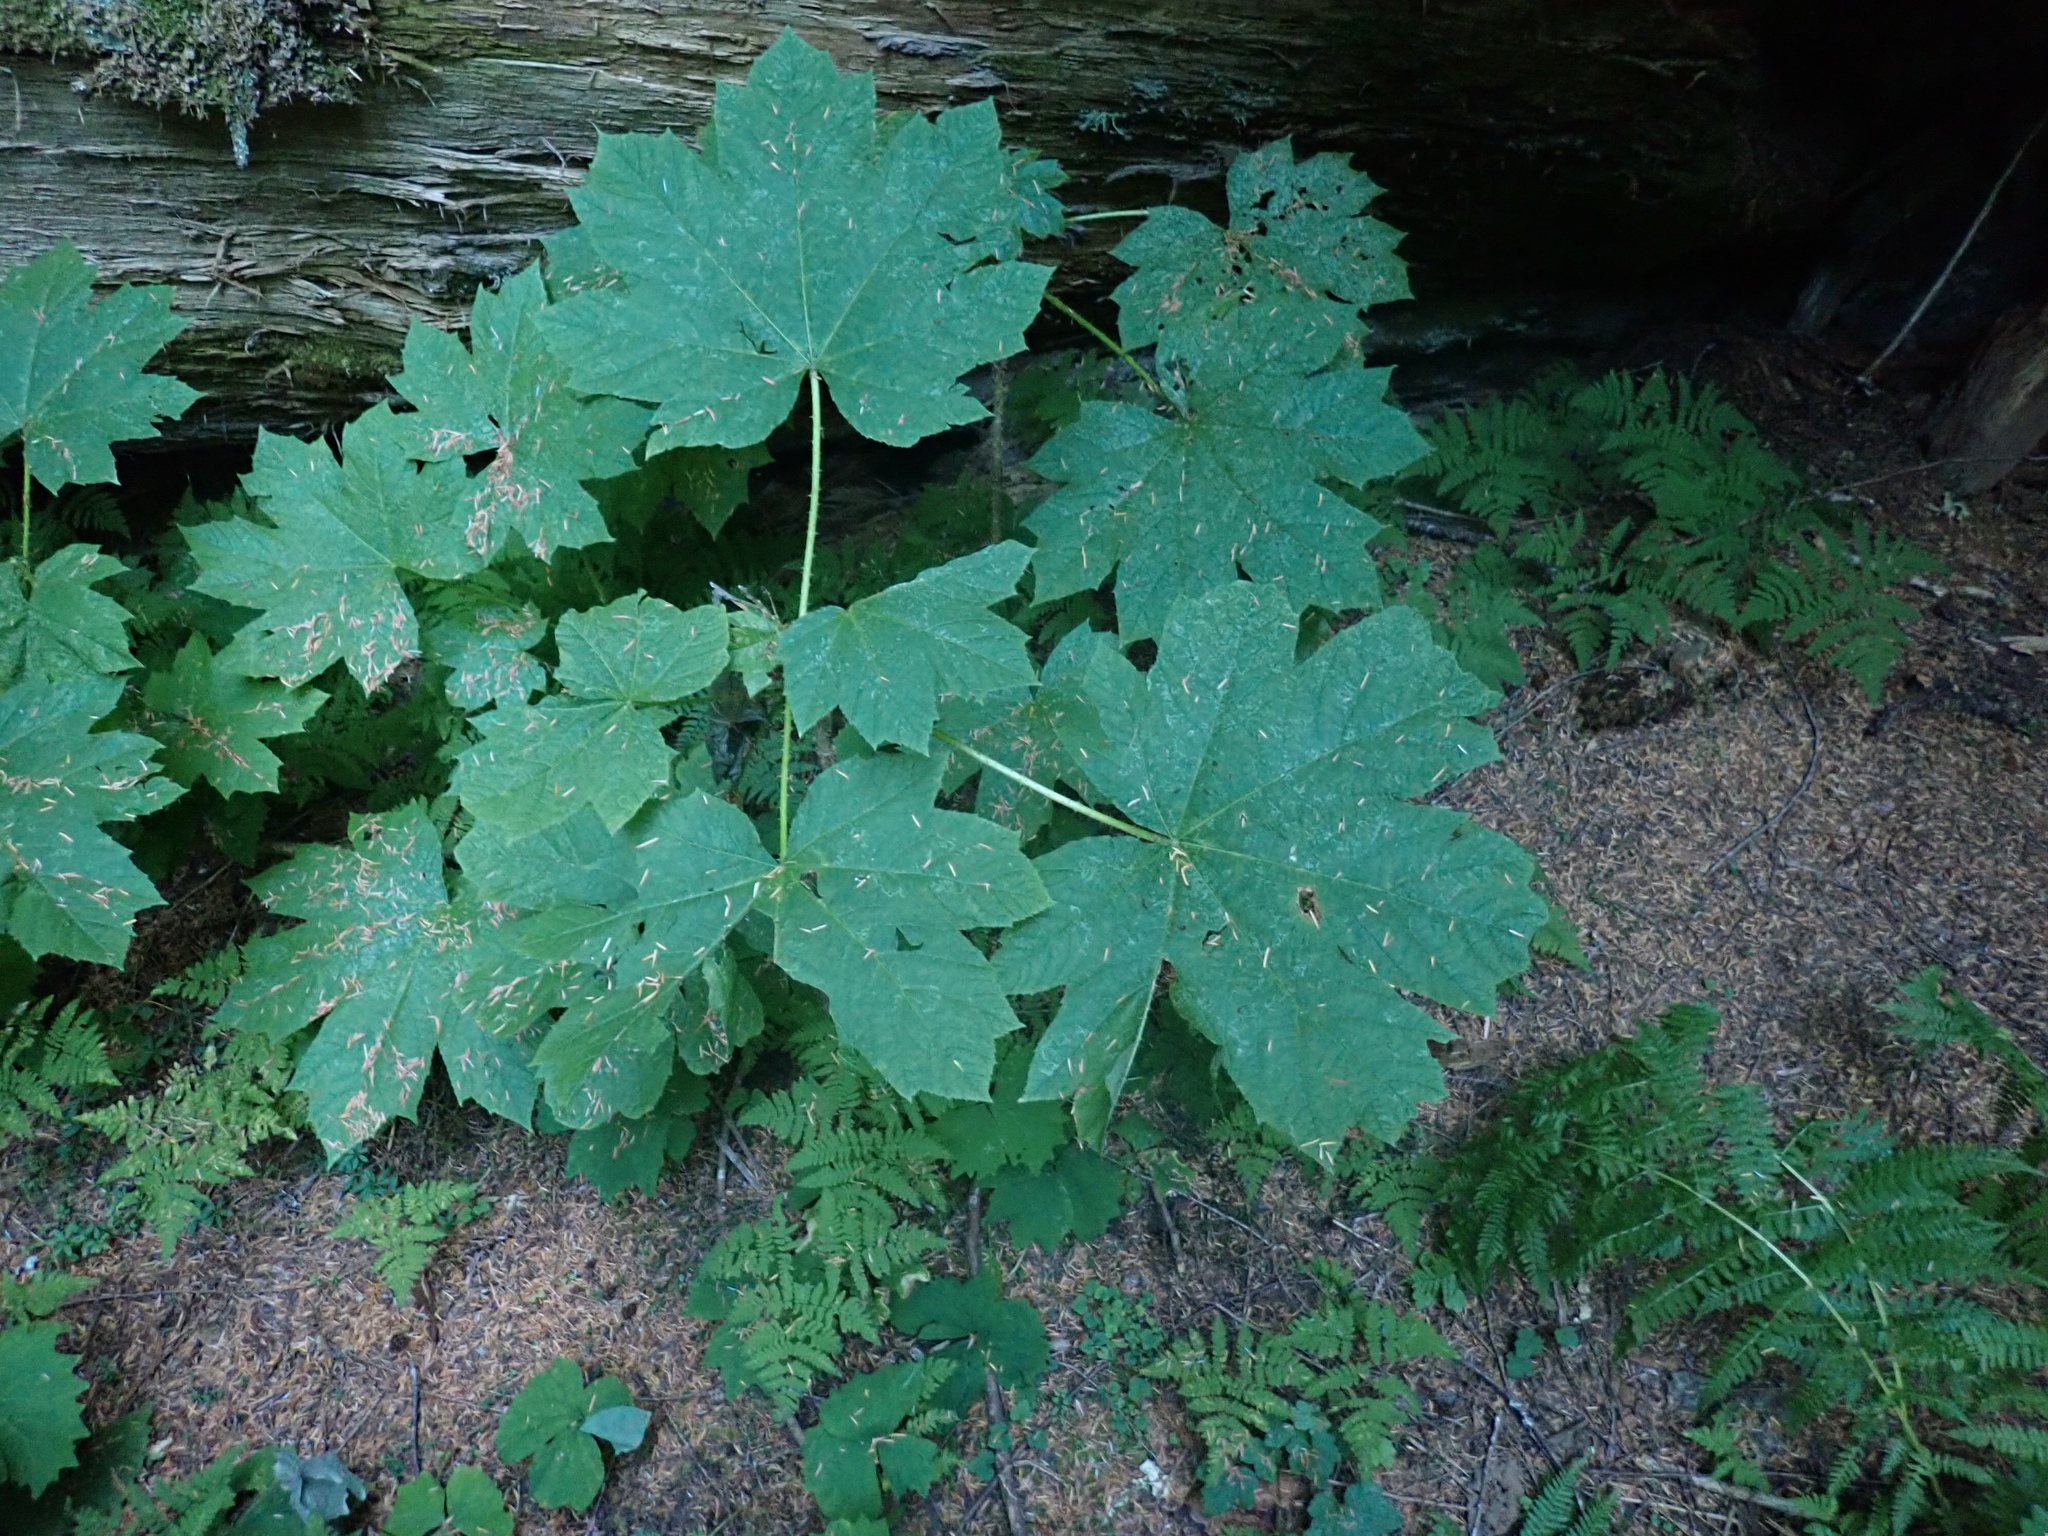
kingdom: Plantae
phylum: Tracheophyta
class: Magnoliopsida
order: Apiales
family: Araliaceae
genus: Oplopanax
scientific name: Oplopanax horridus
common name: Devil's walking-stick
